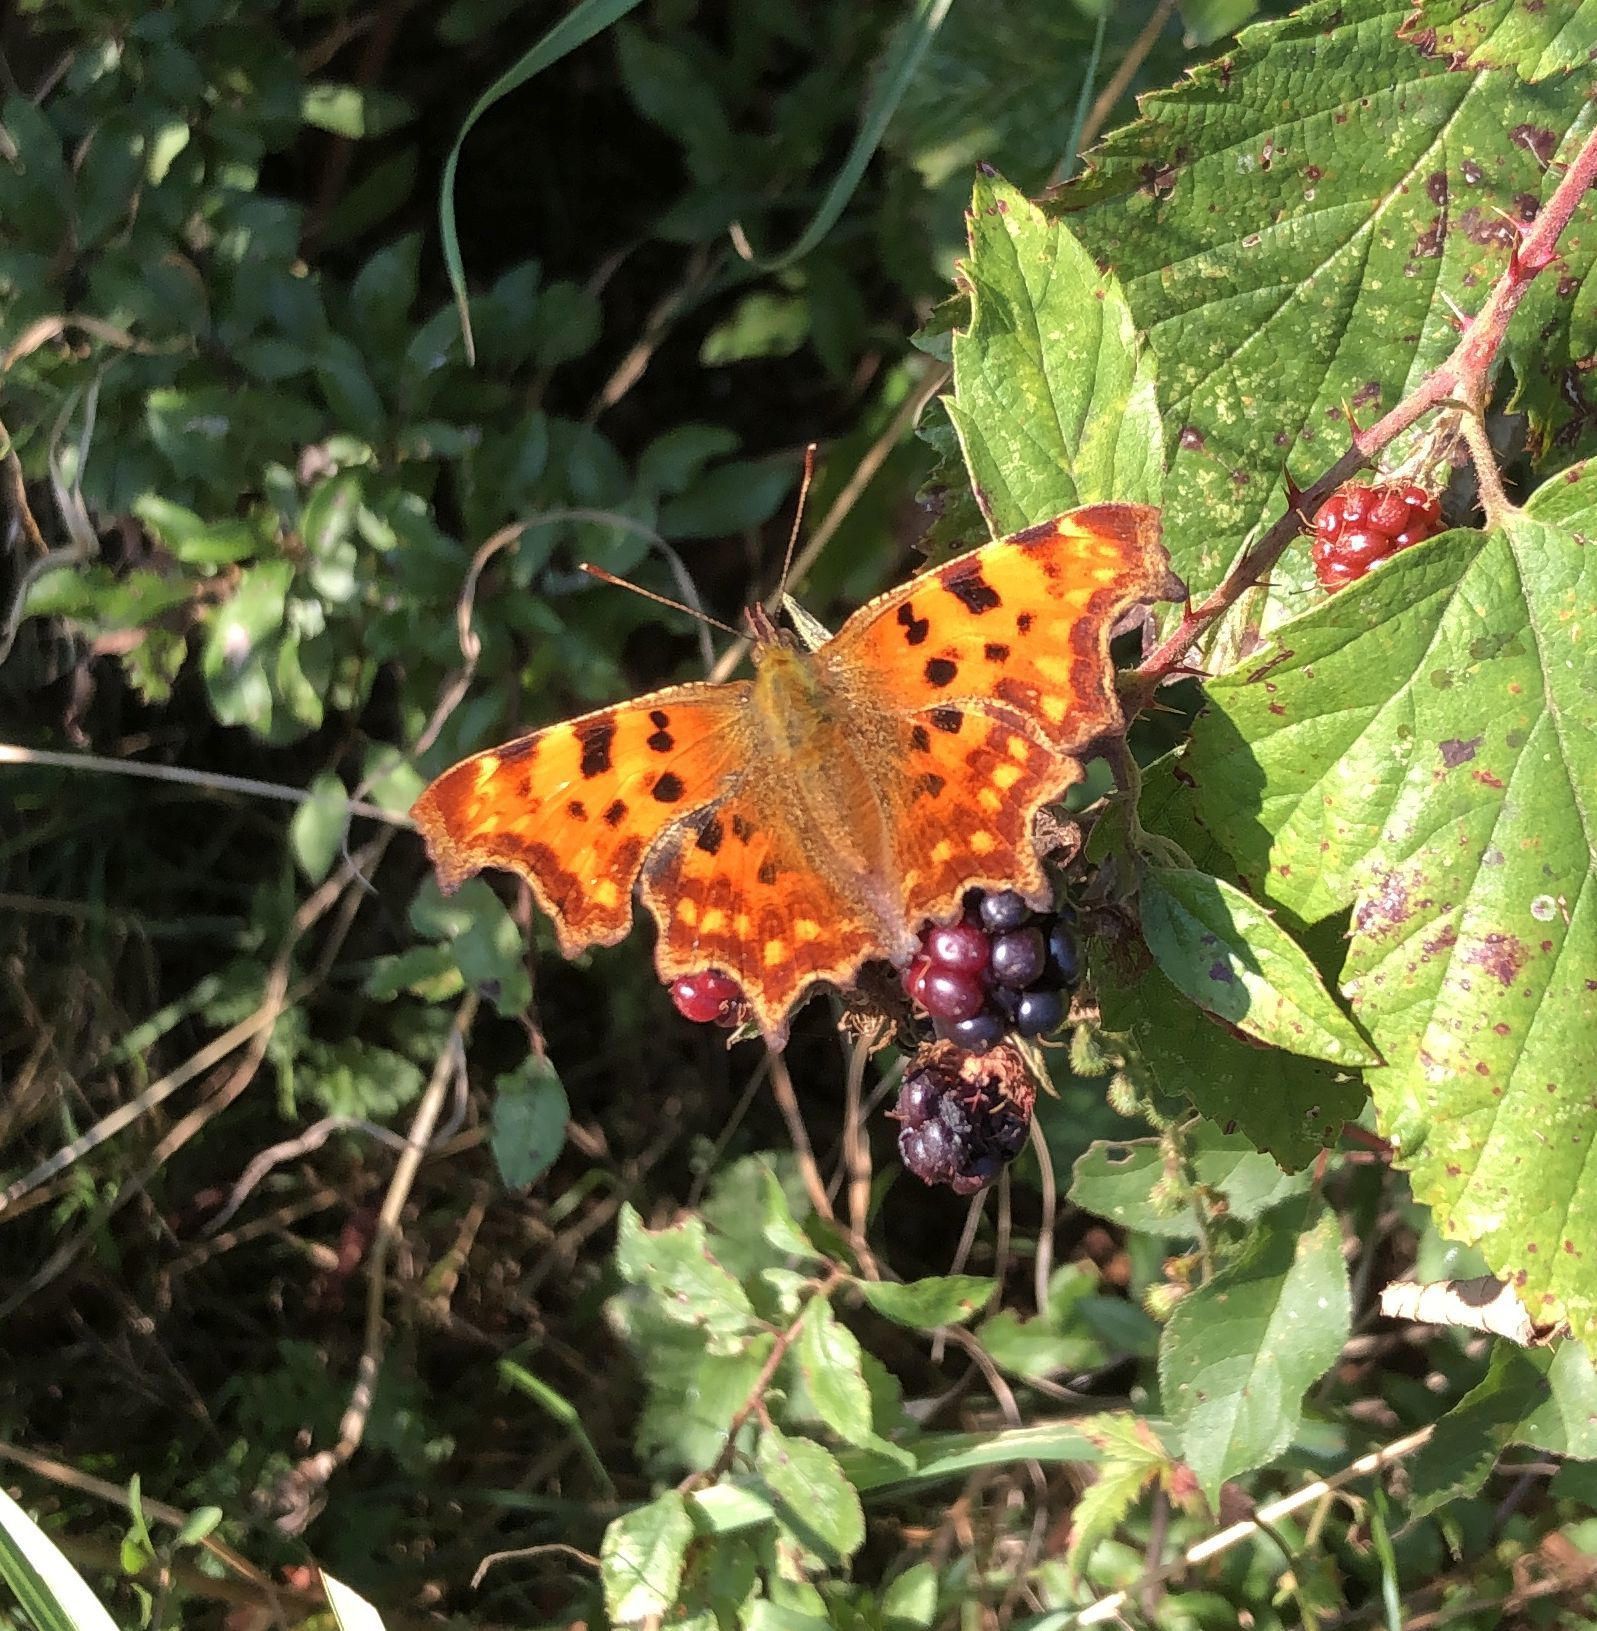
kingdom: Animalia
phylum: Arthropoda
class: Insecta
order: Lepidoptera
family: Nymphalidae
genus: Polygonia
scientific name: Polygonia c-album
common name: Comma
